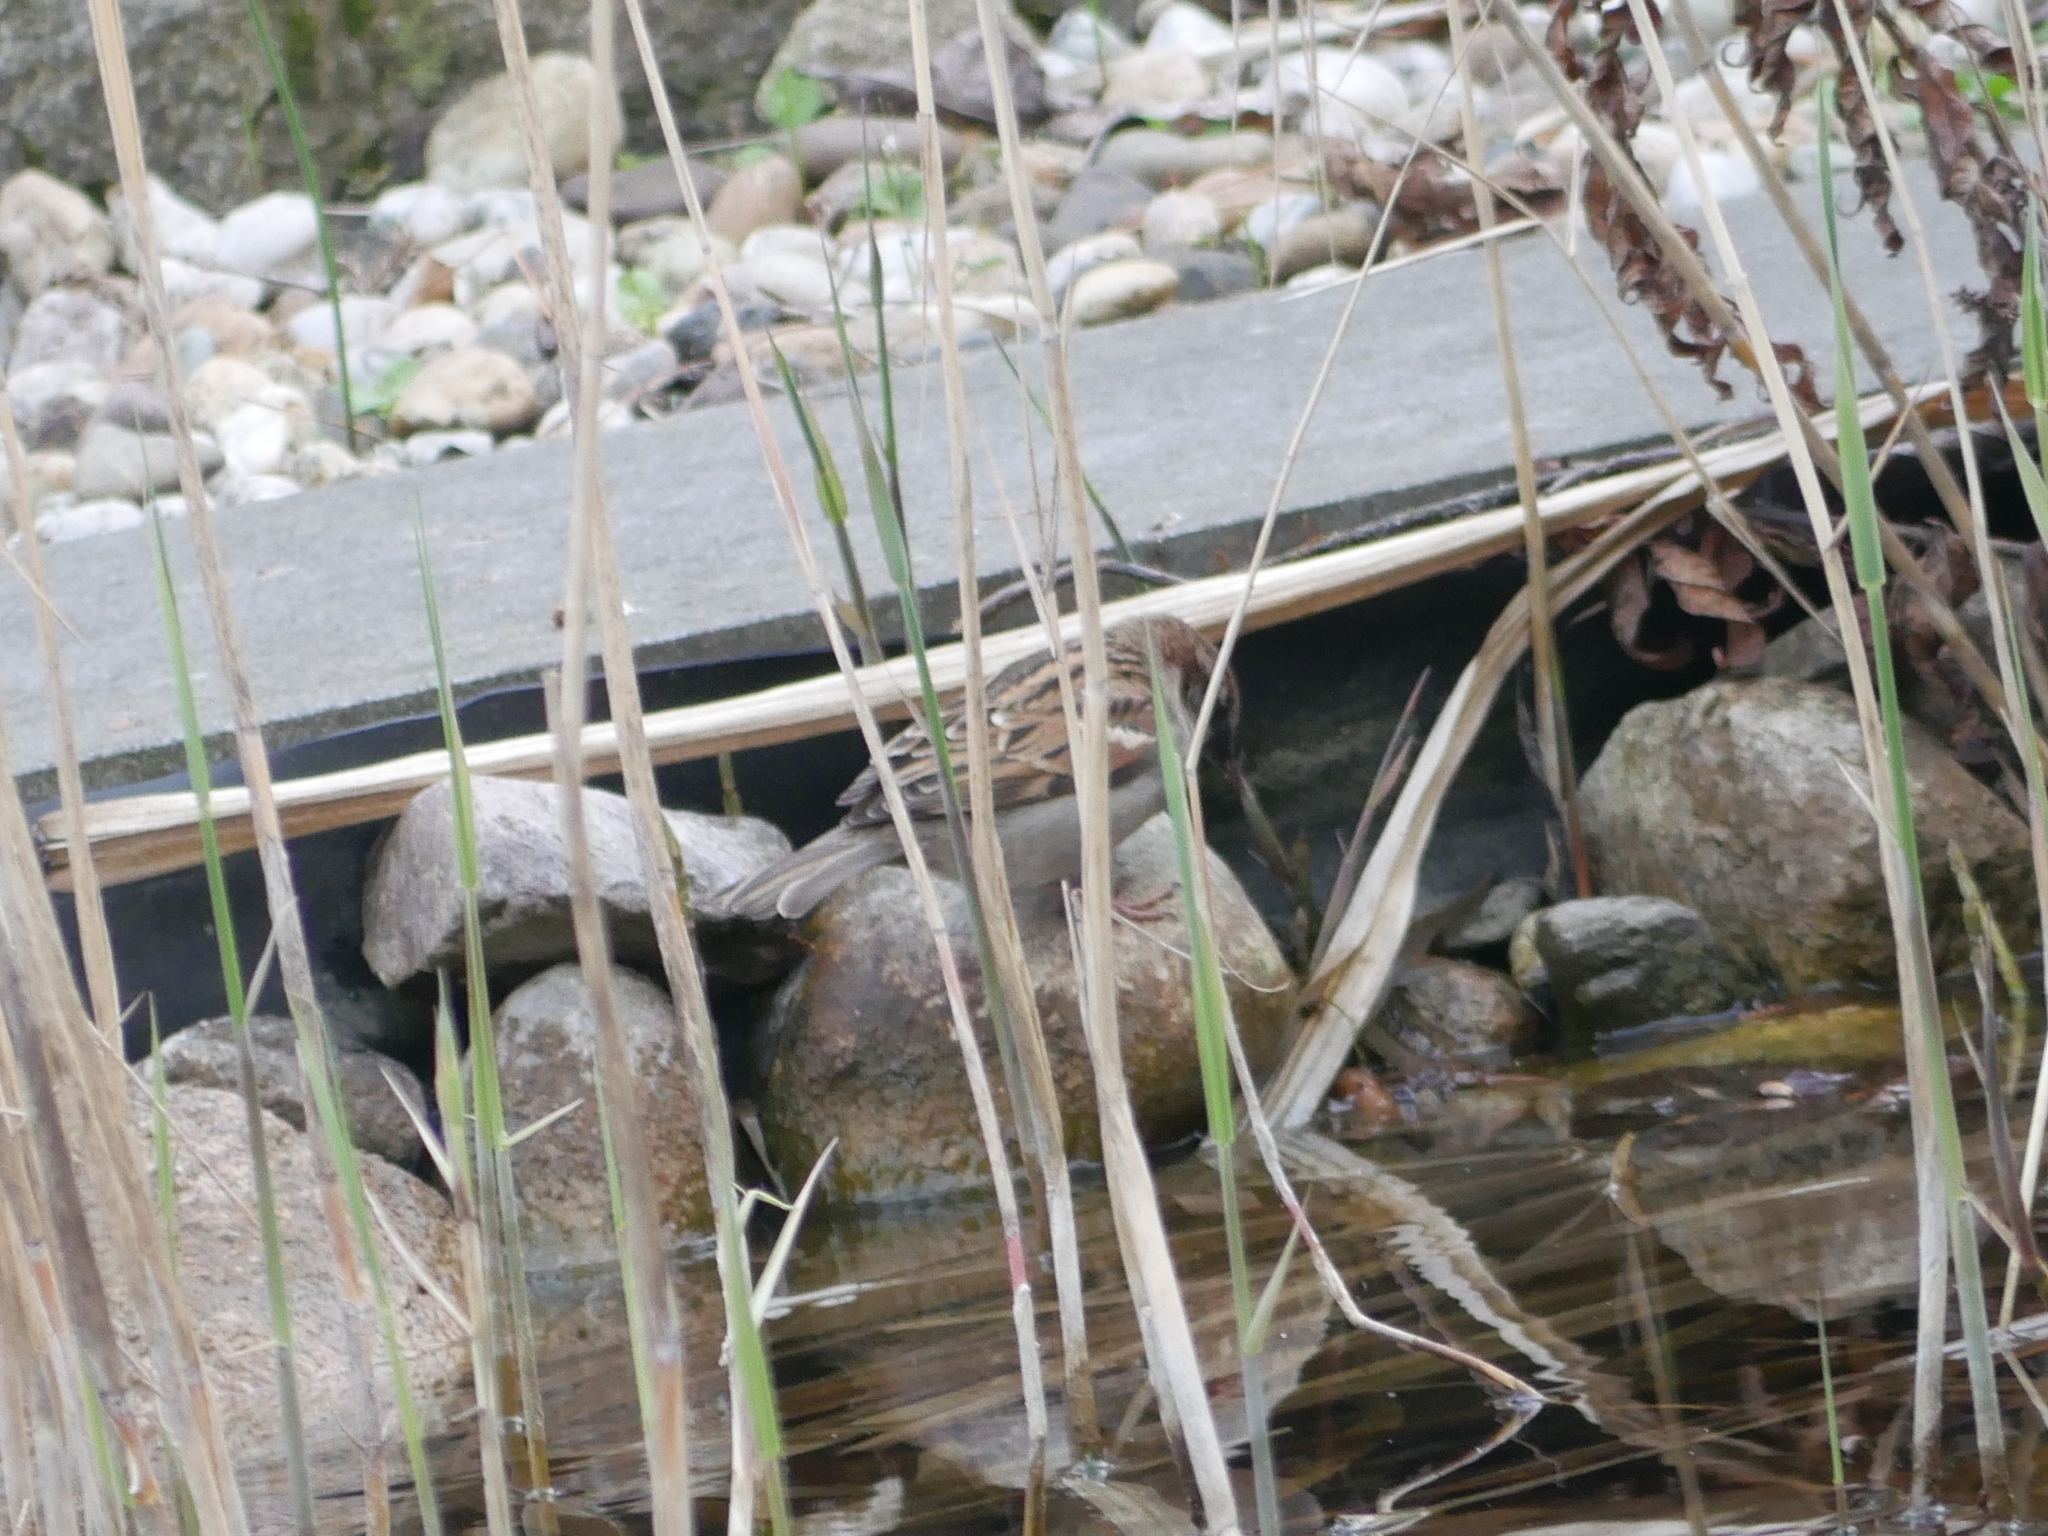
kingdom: Animalia
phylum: Chordata
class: Aves
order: Passeriformes
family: Passeridae
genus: Passer
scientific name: Passer domesticus
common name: House sparrow
